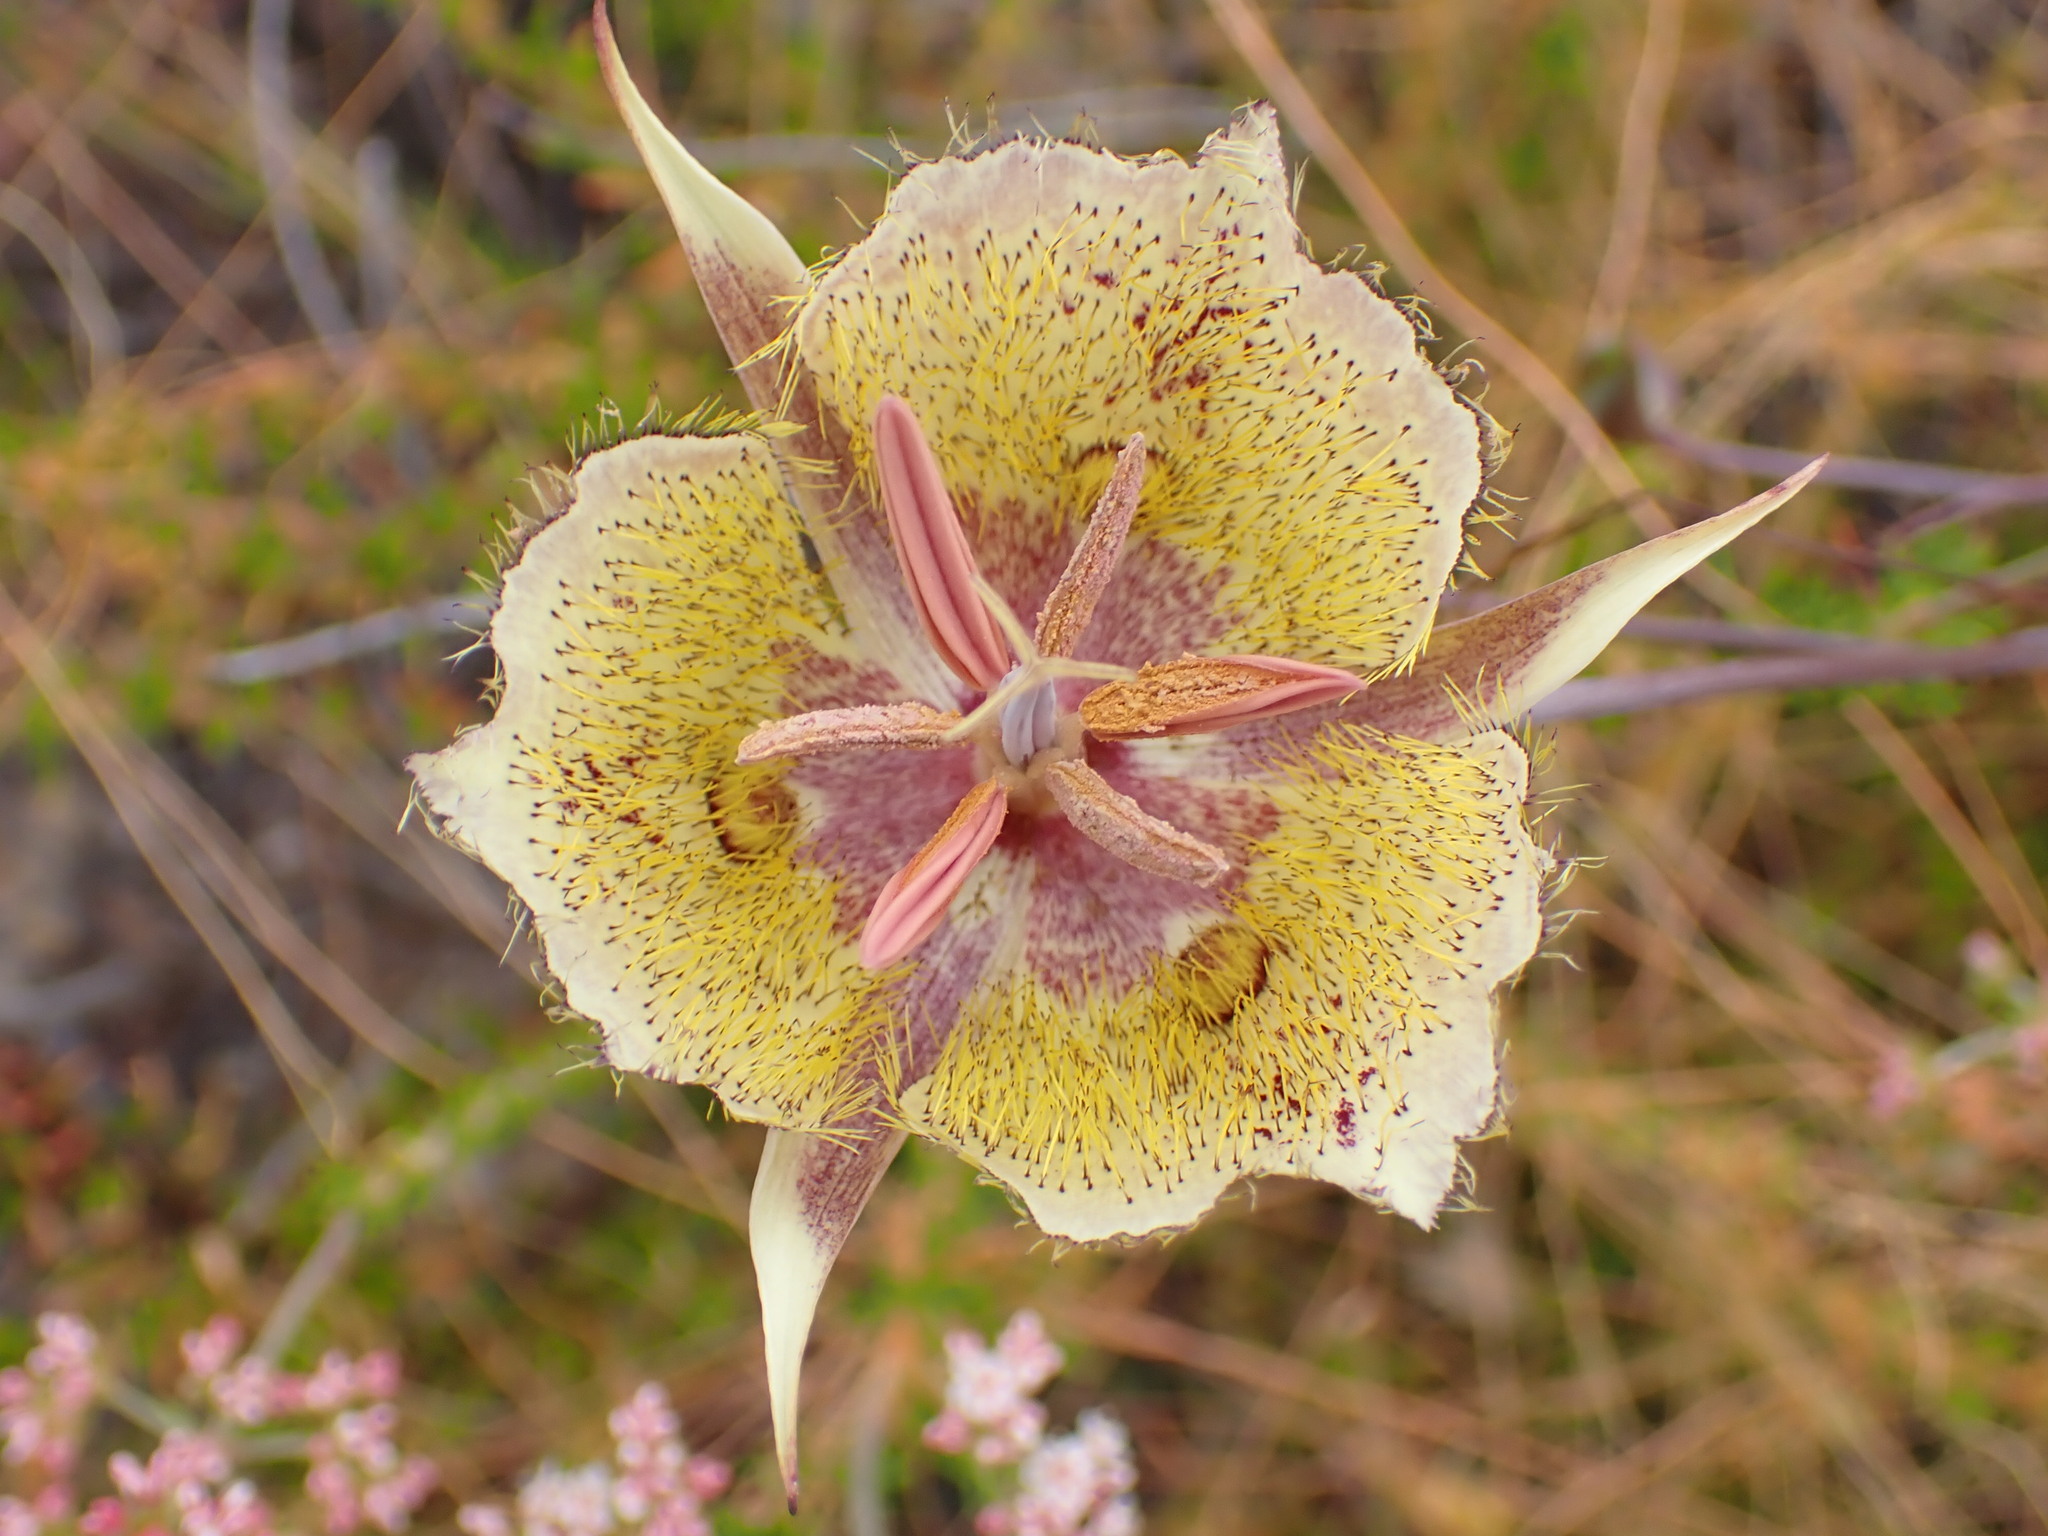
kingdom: Plantae
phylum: Tracheophyta
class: Liliopsida
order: Liliales
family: Liliaceae
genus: Calochortus
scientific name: Calochortus weedii
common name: Weed's mariposa-lily
